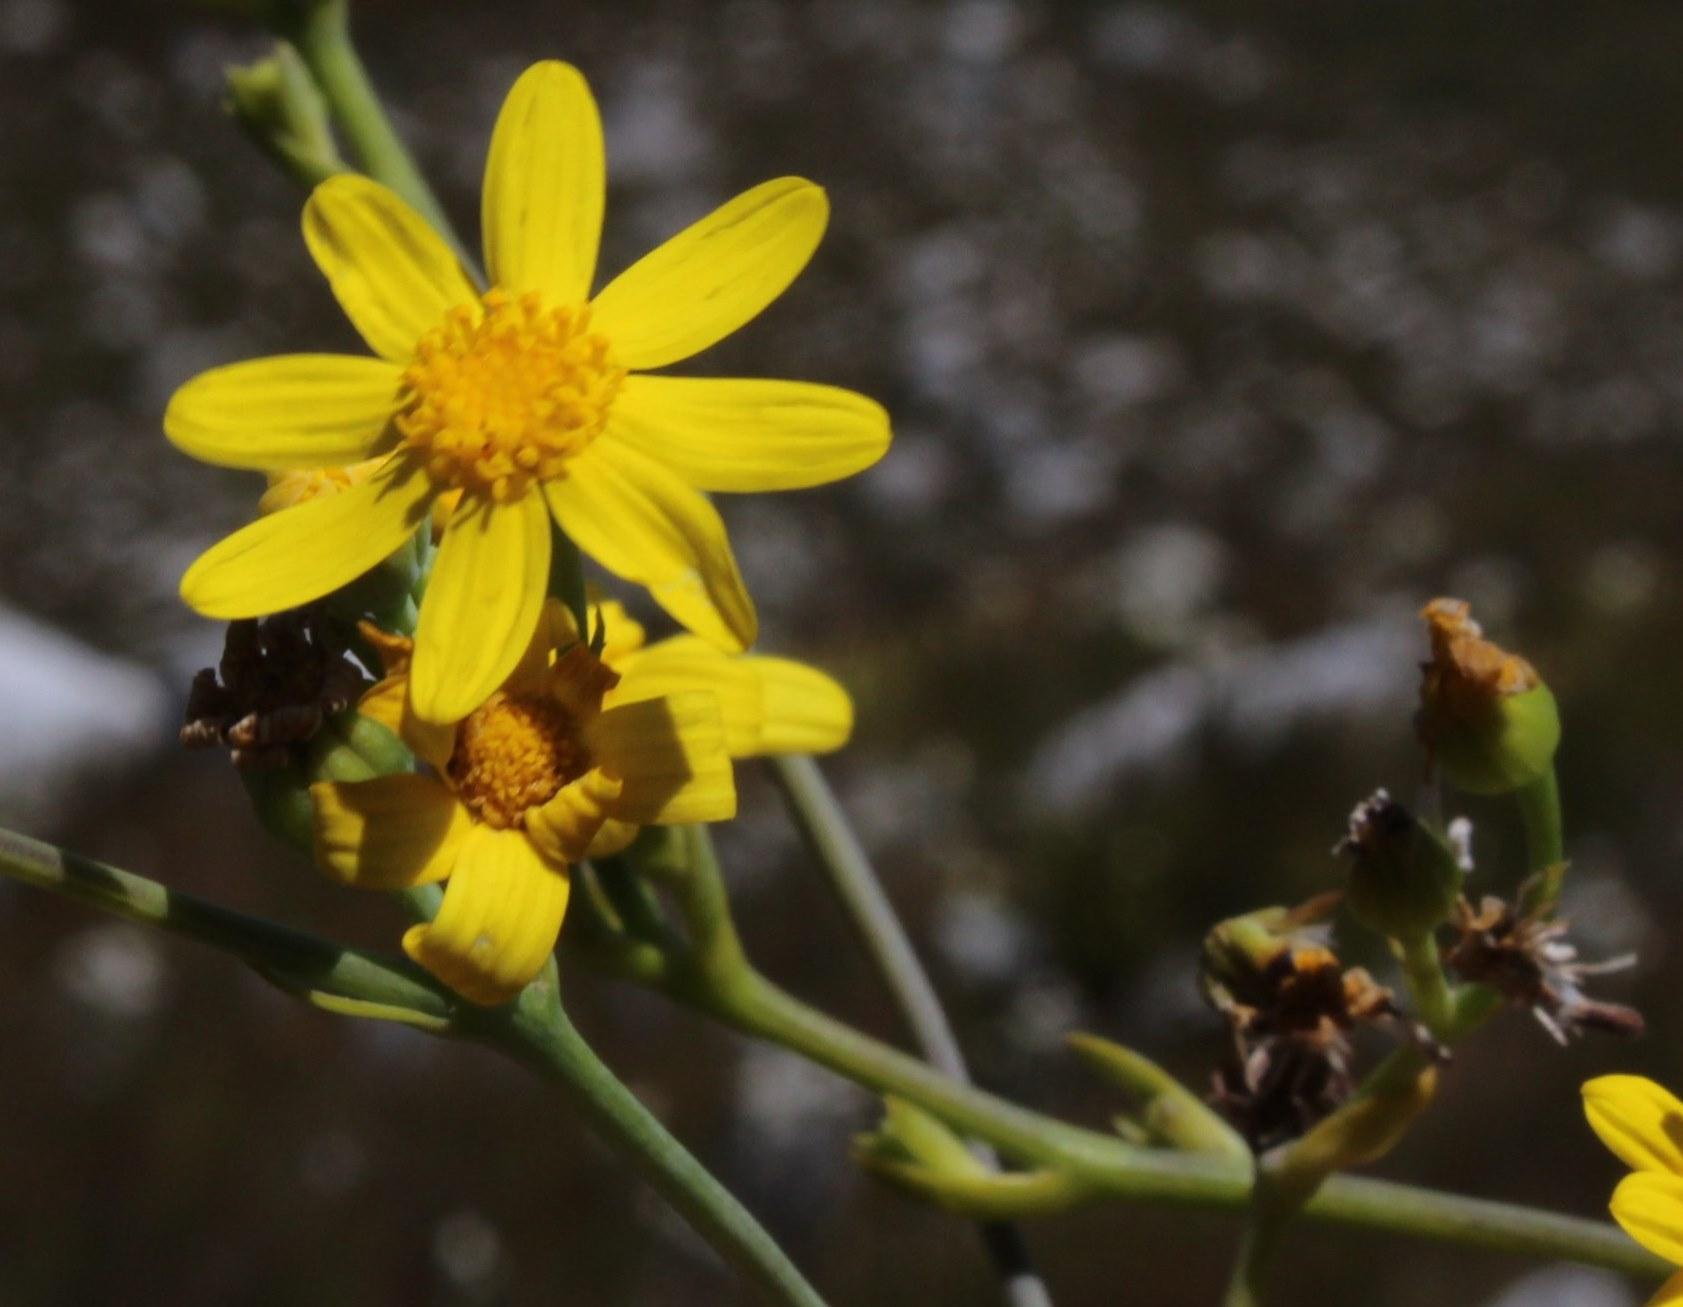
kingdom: Plantae
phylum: Tracheophyta
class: Magnoliopsida
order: Asterales
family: Asteraceae
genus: Othonna
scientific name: Othonna quinquedentata
